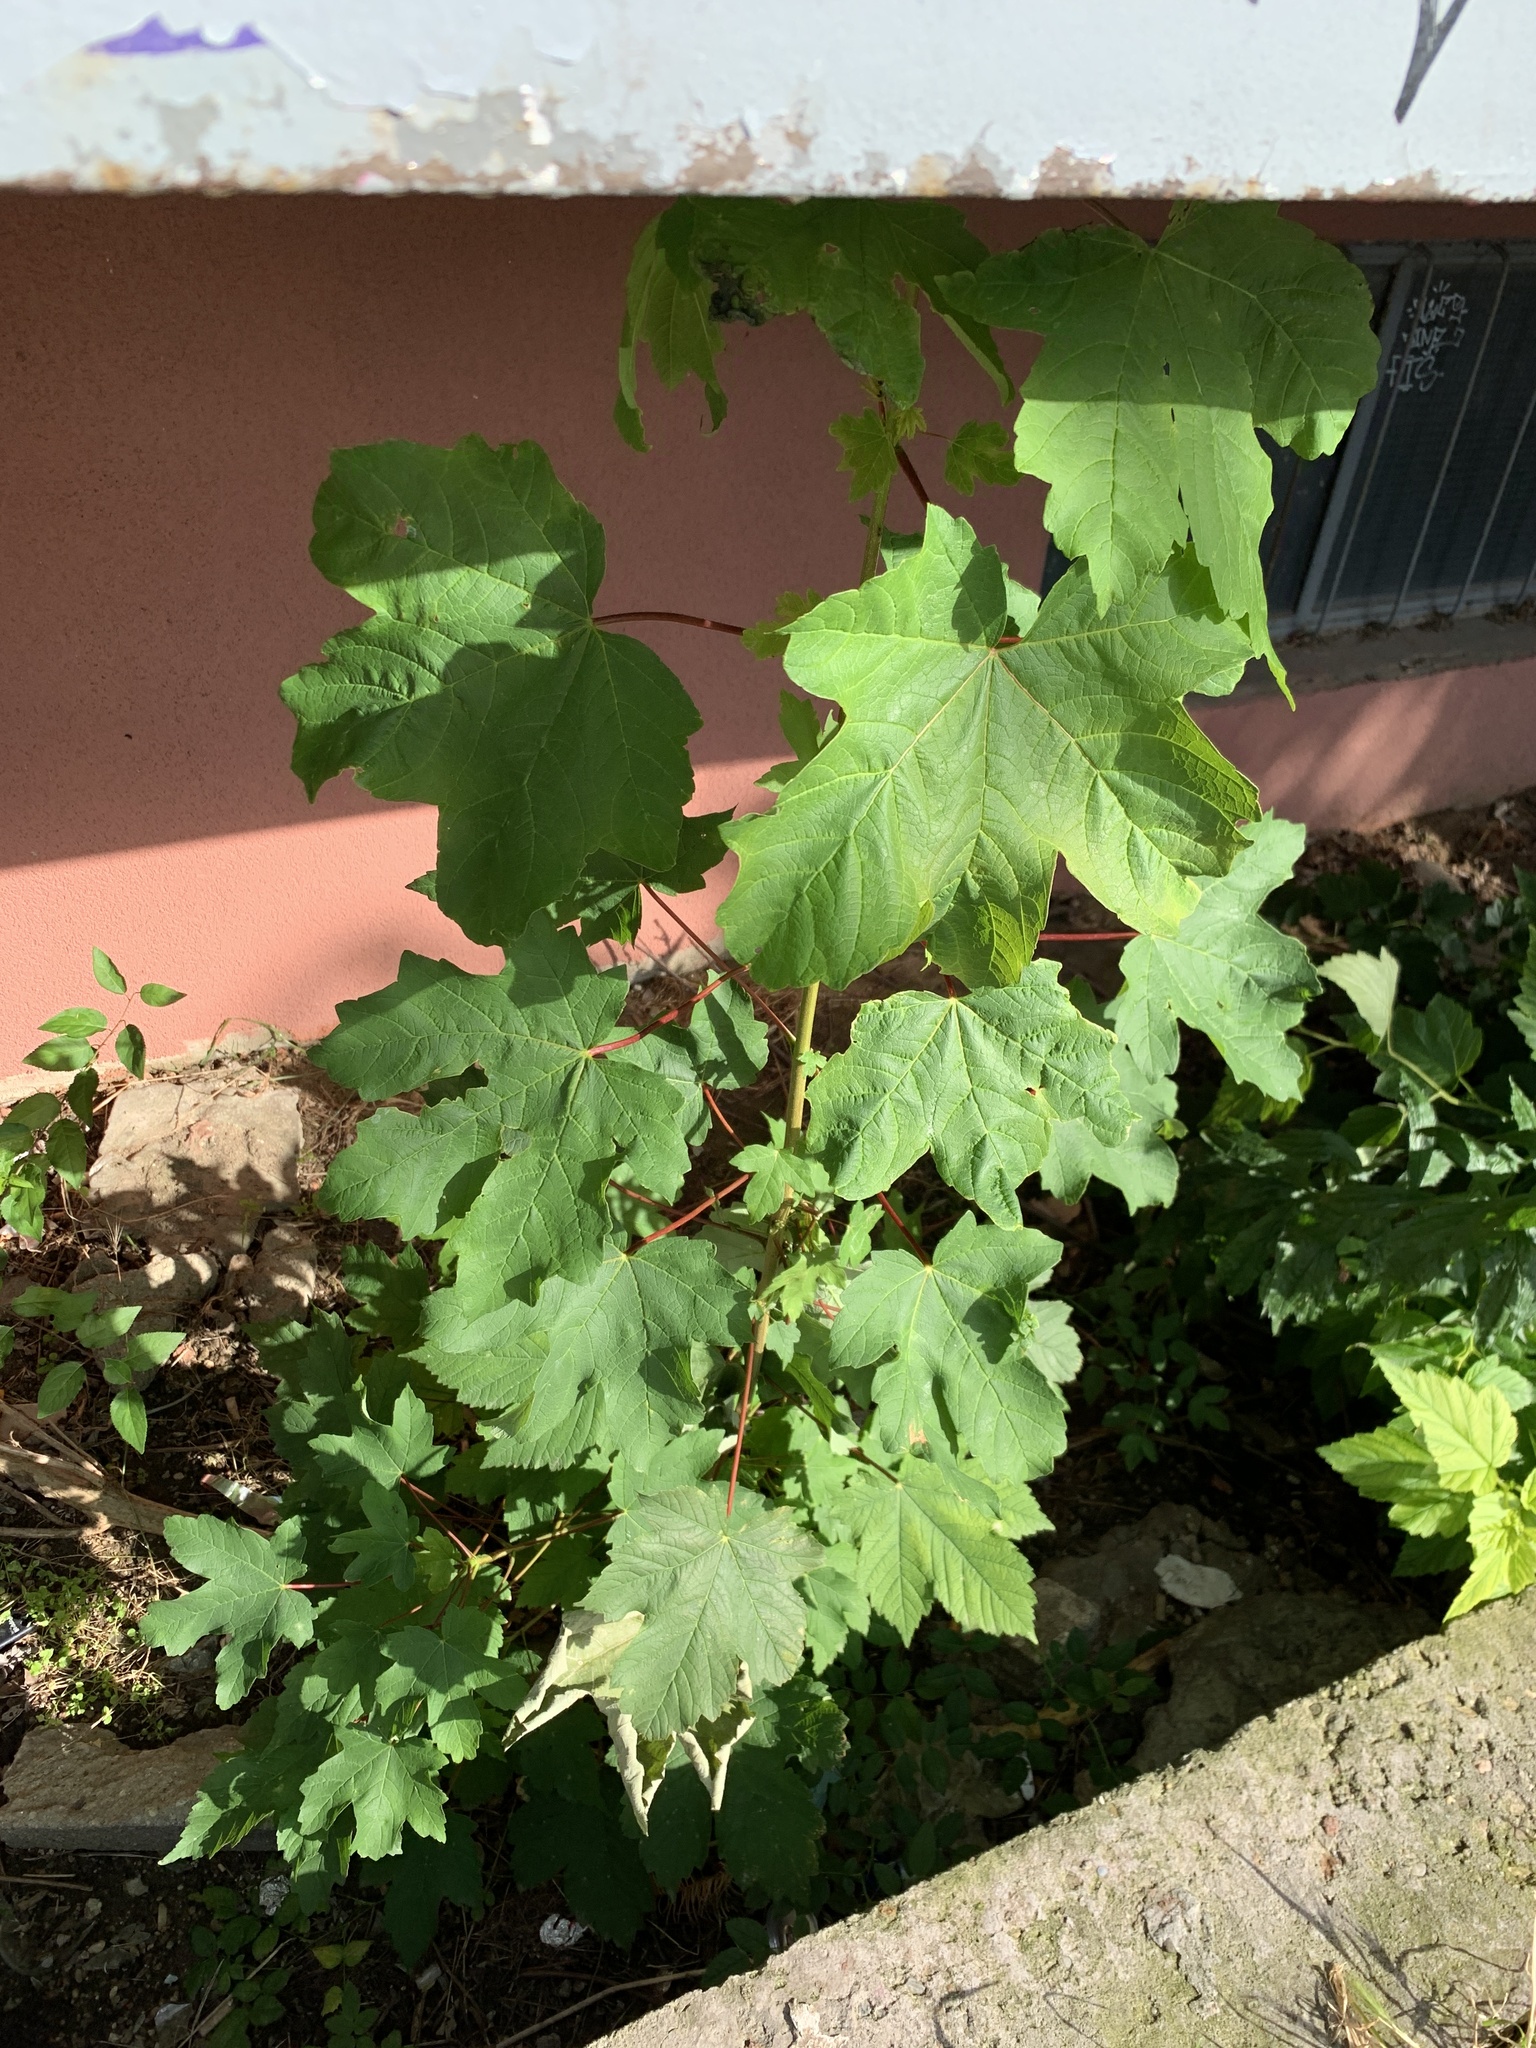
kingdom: Plantae
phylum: Tracheophyta
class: Magnoliopsida
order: Sapindales
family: Sapindaceae
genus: Acer
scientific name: Acer pseudoplatanus
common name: Sycamore
